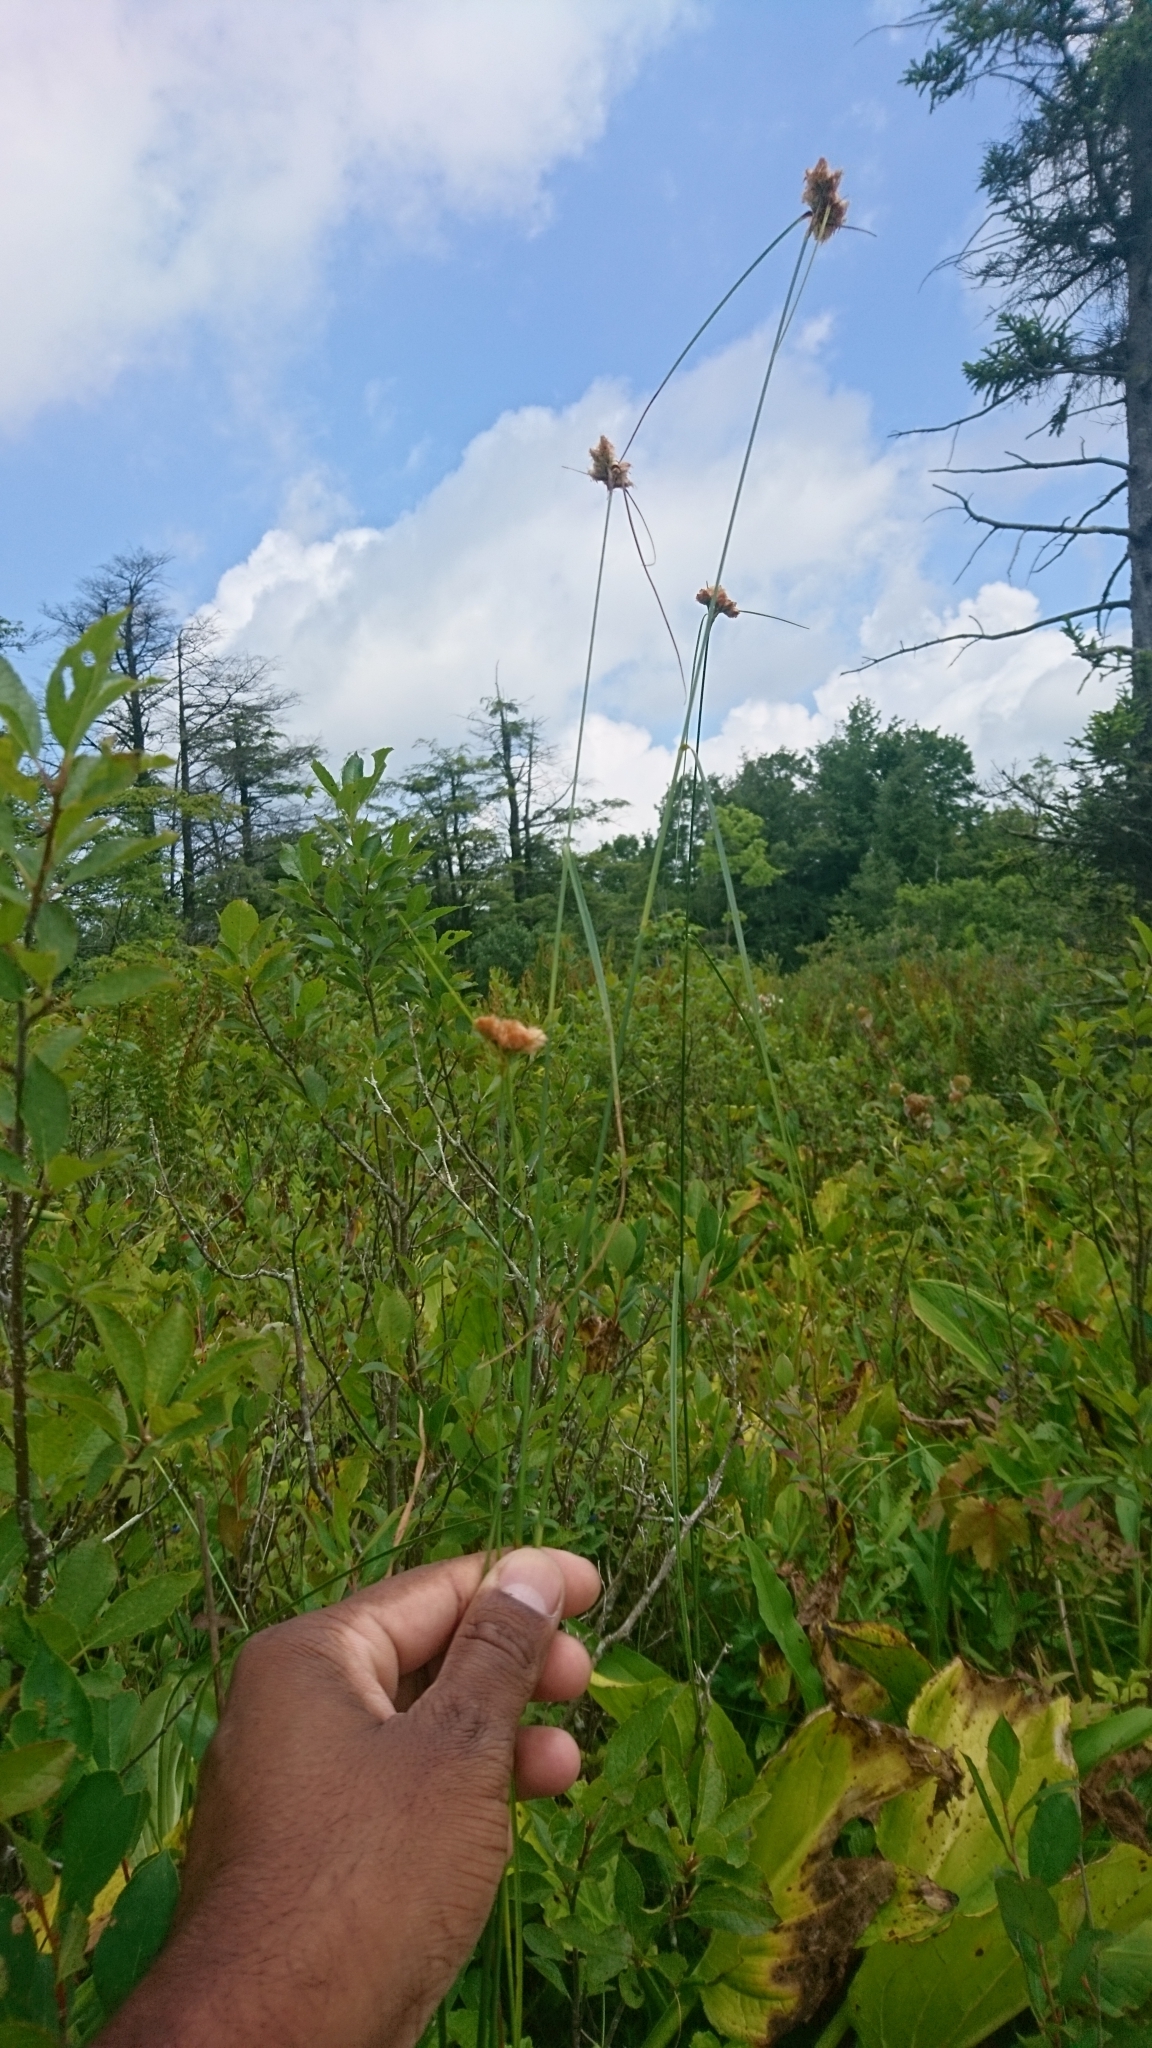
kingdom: Plantae
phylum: Tracheophyta
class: Liliopsida
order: Poales
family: Cyperaceae
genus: Eriophorum
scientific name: Eriophorum virginicum
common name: Tawny cottongrass
